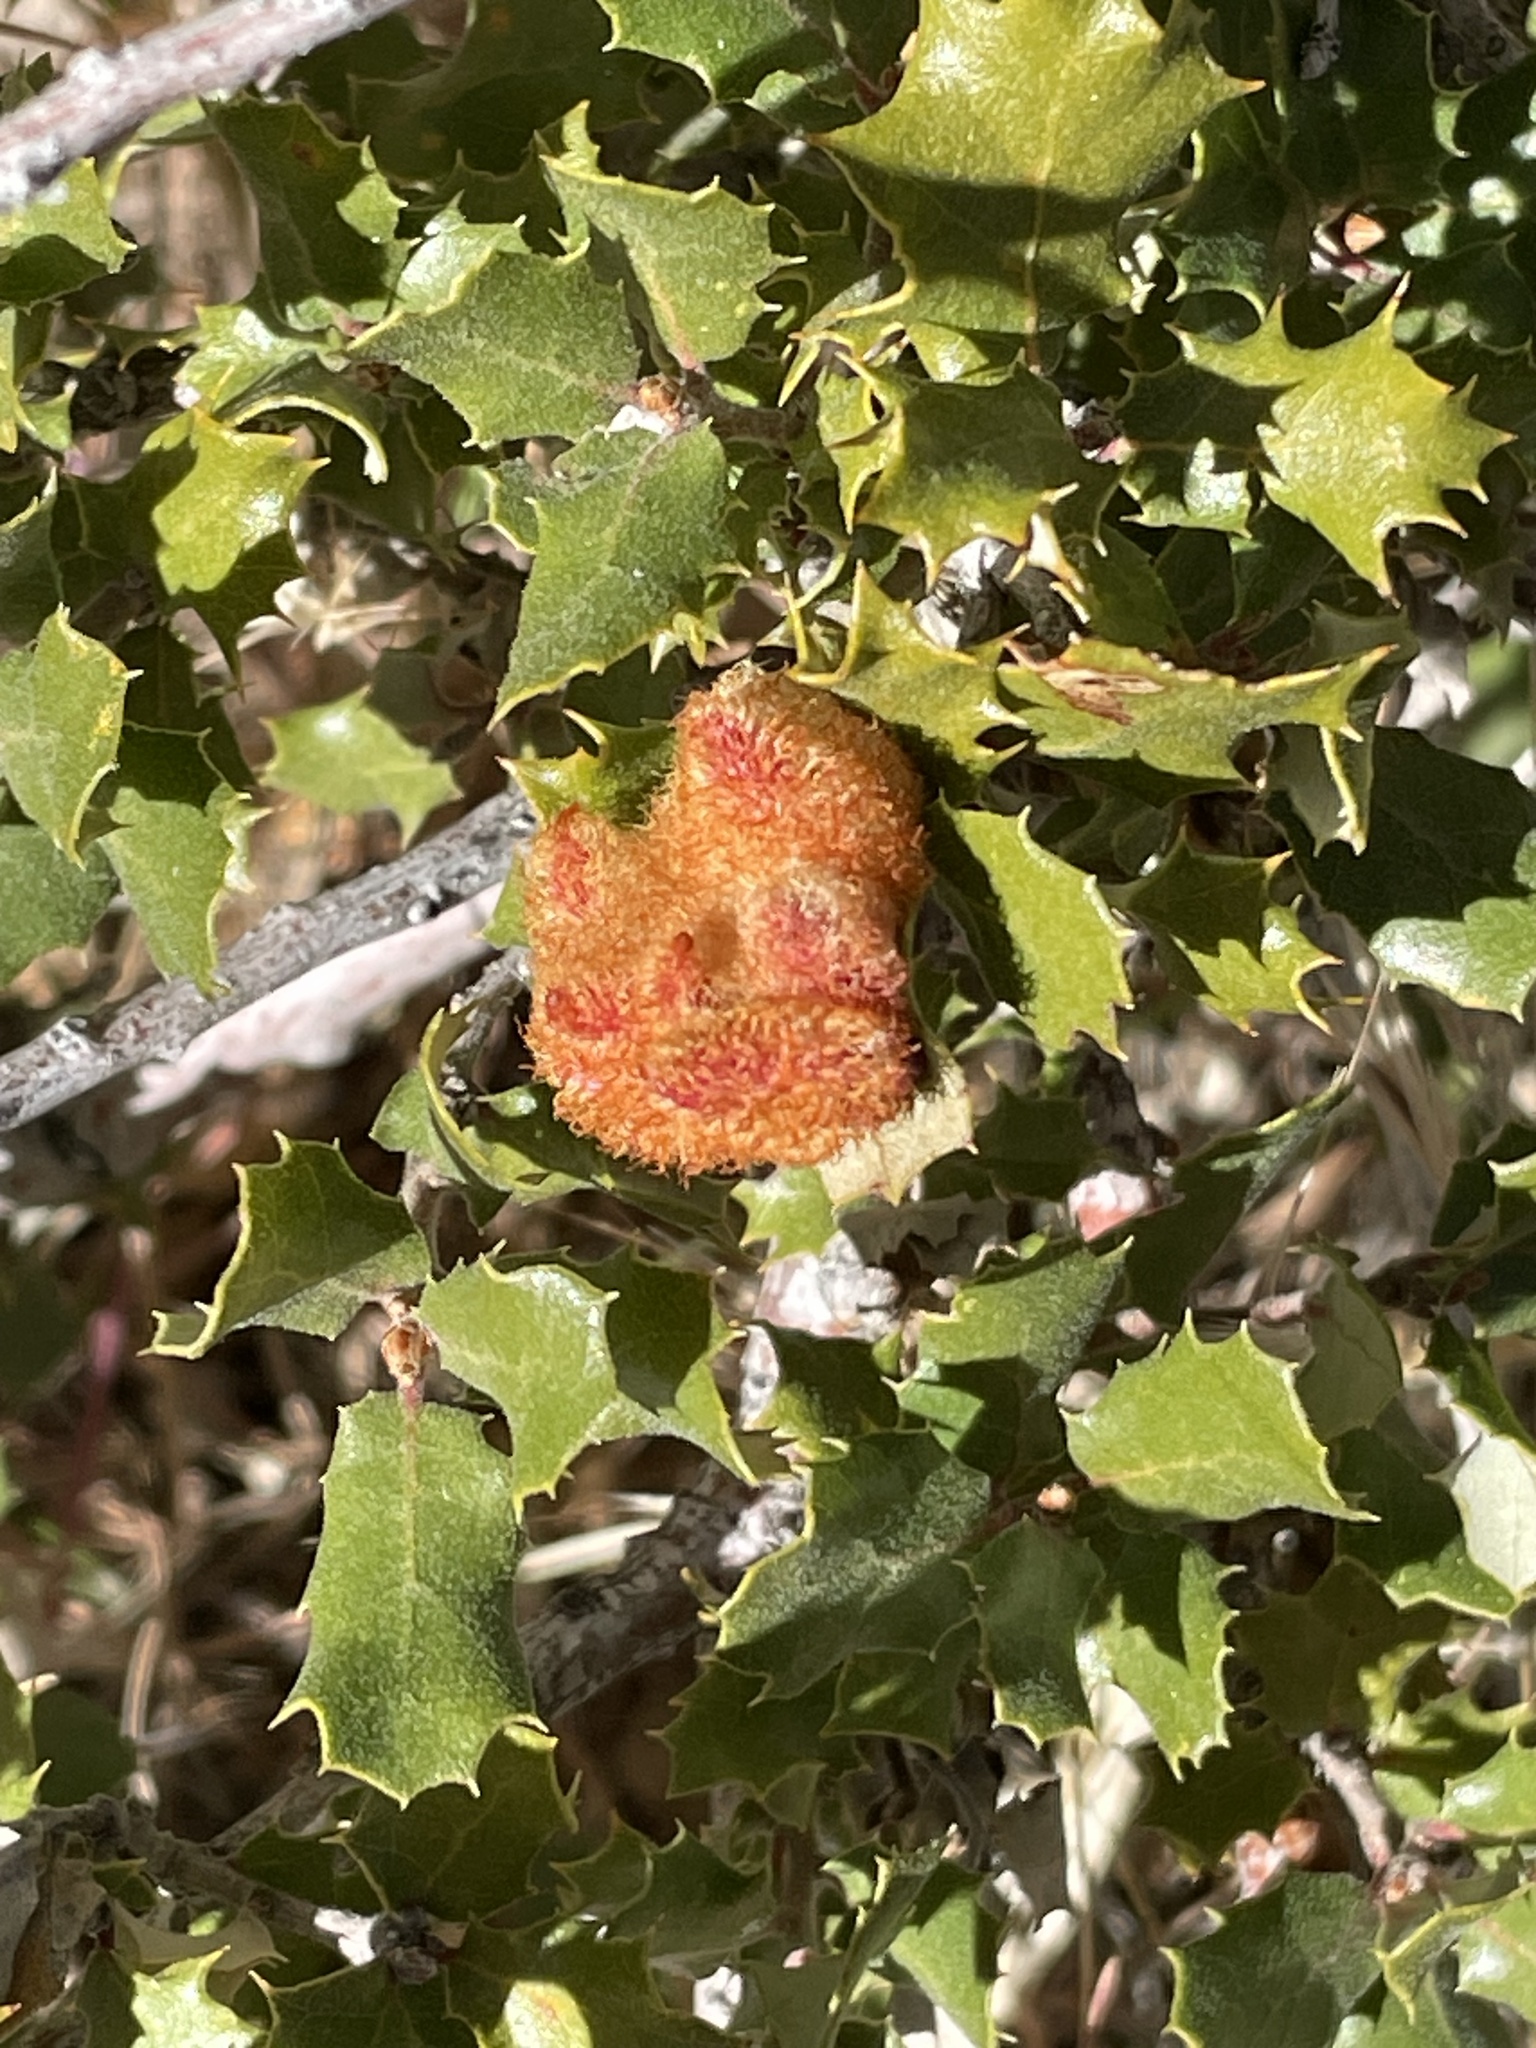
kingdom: Animalia
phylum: Arthropoda
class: Insecta
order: Hymenoptera
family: Cynipidae
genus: Andricus
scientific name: Andricus
